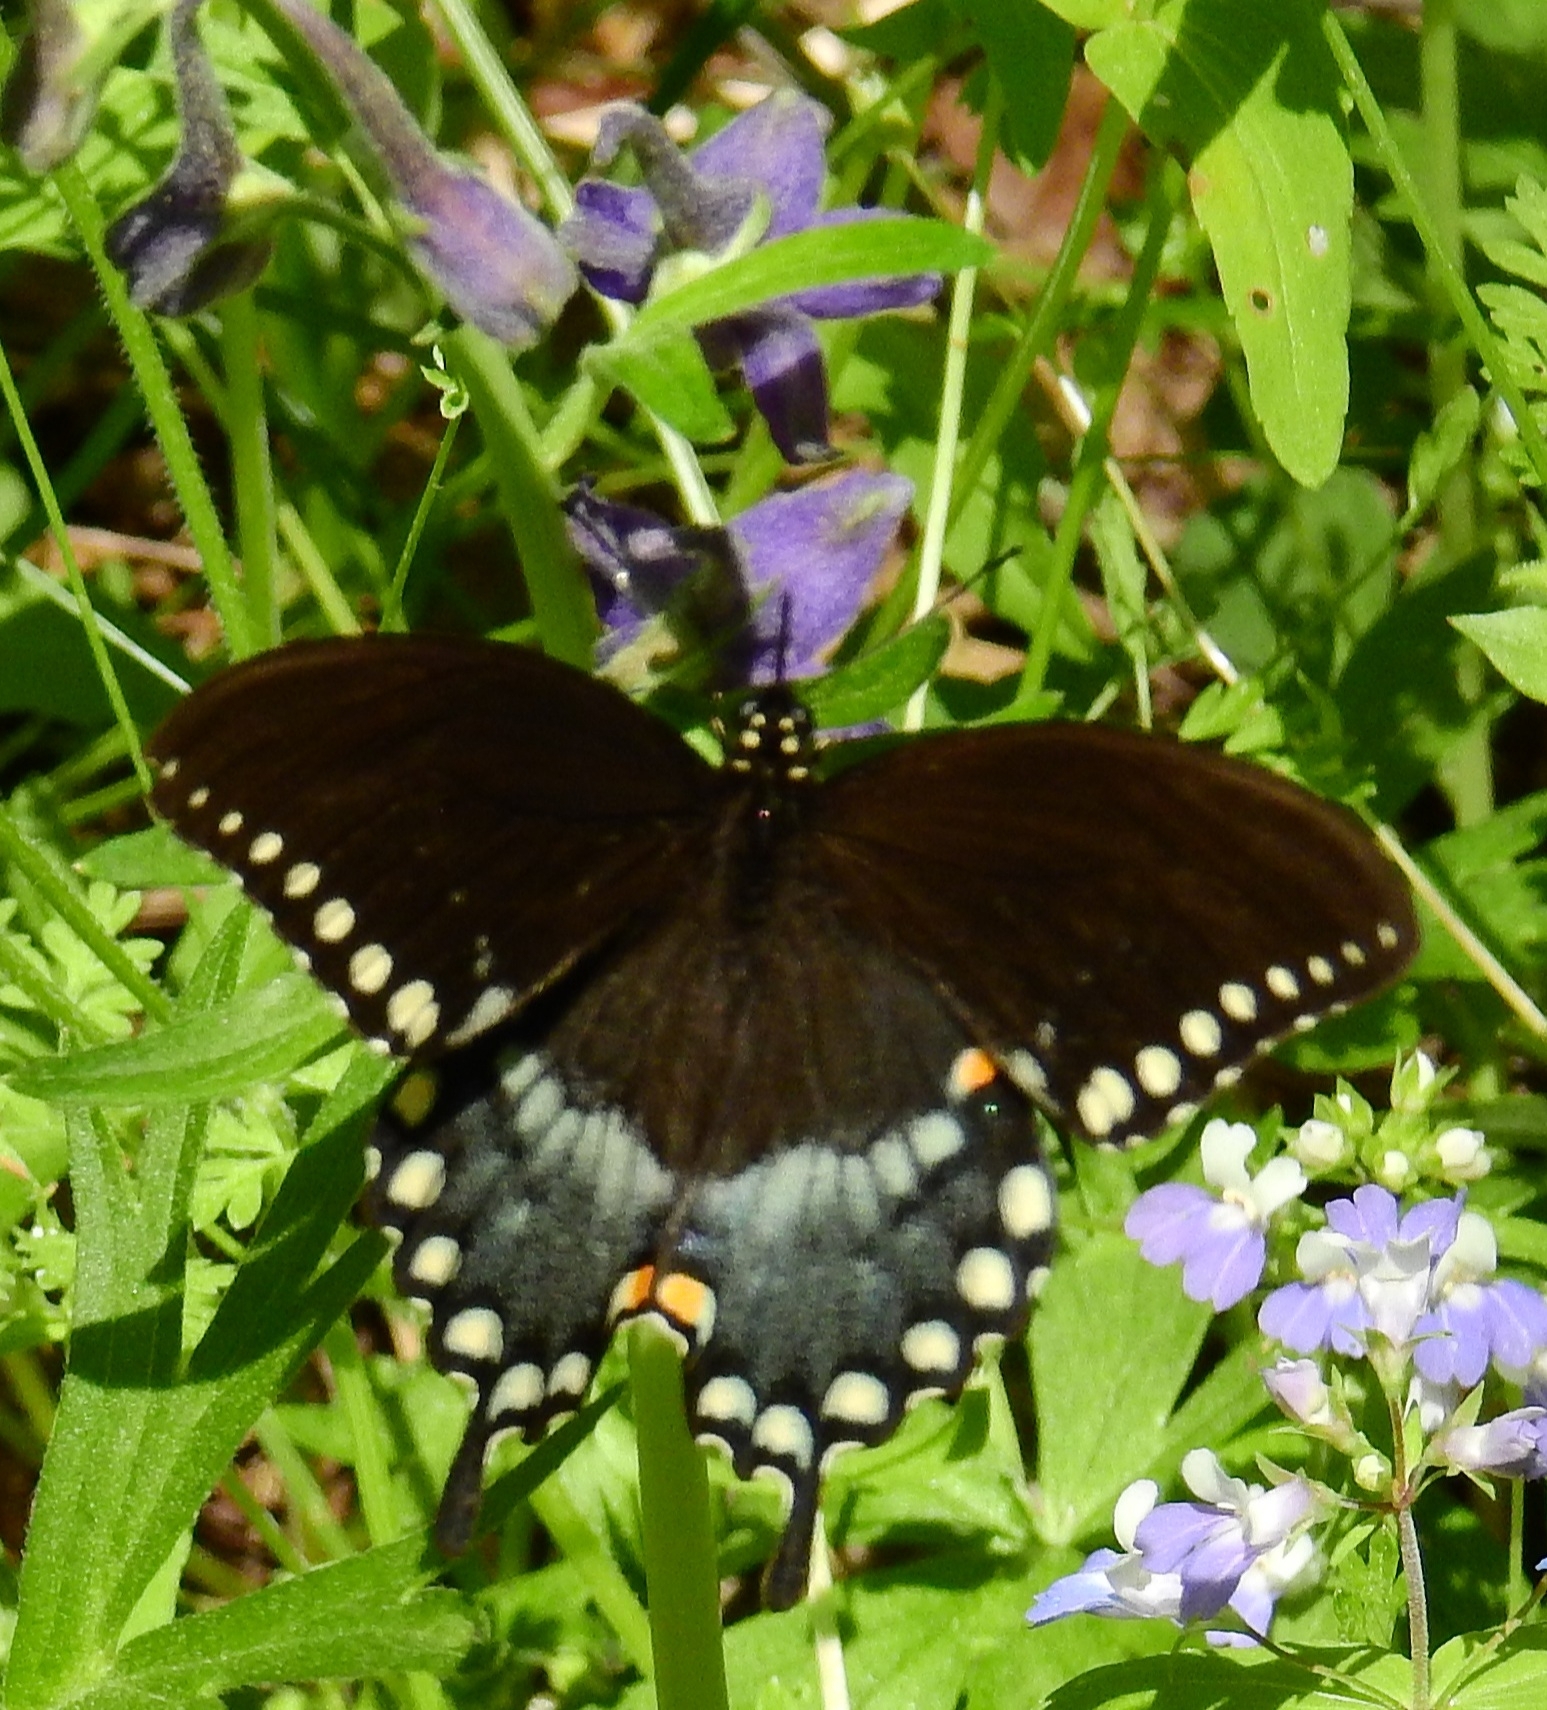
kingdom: Animalia
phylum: Arthropoda
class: Insecta
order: Lepidoptera
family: Papilionidae
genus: Papilio
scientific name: Papilio troilus
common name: Spicebush swallowtail
